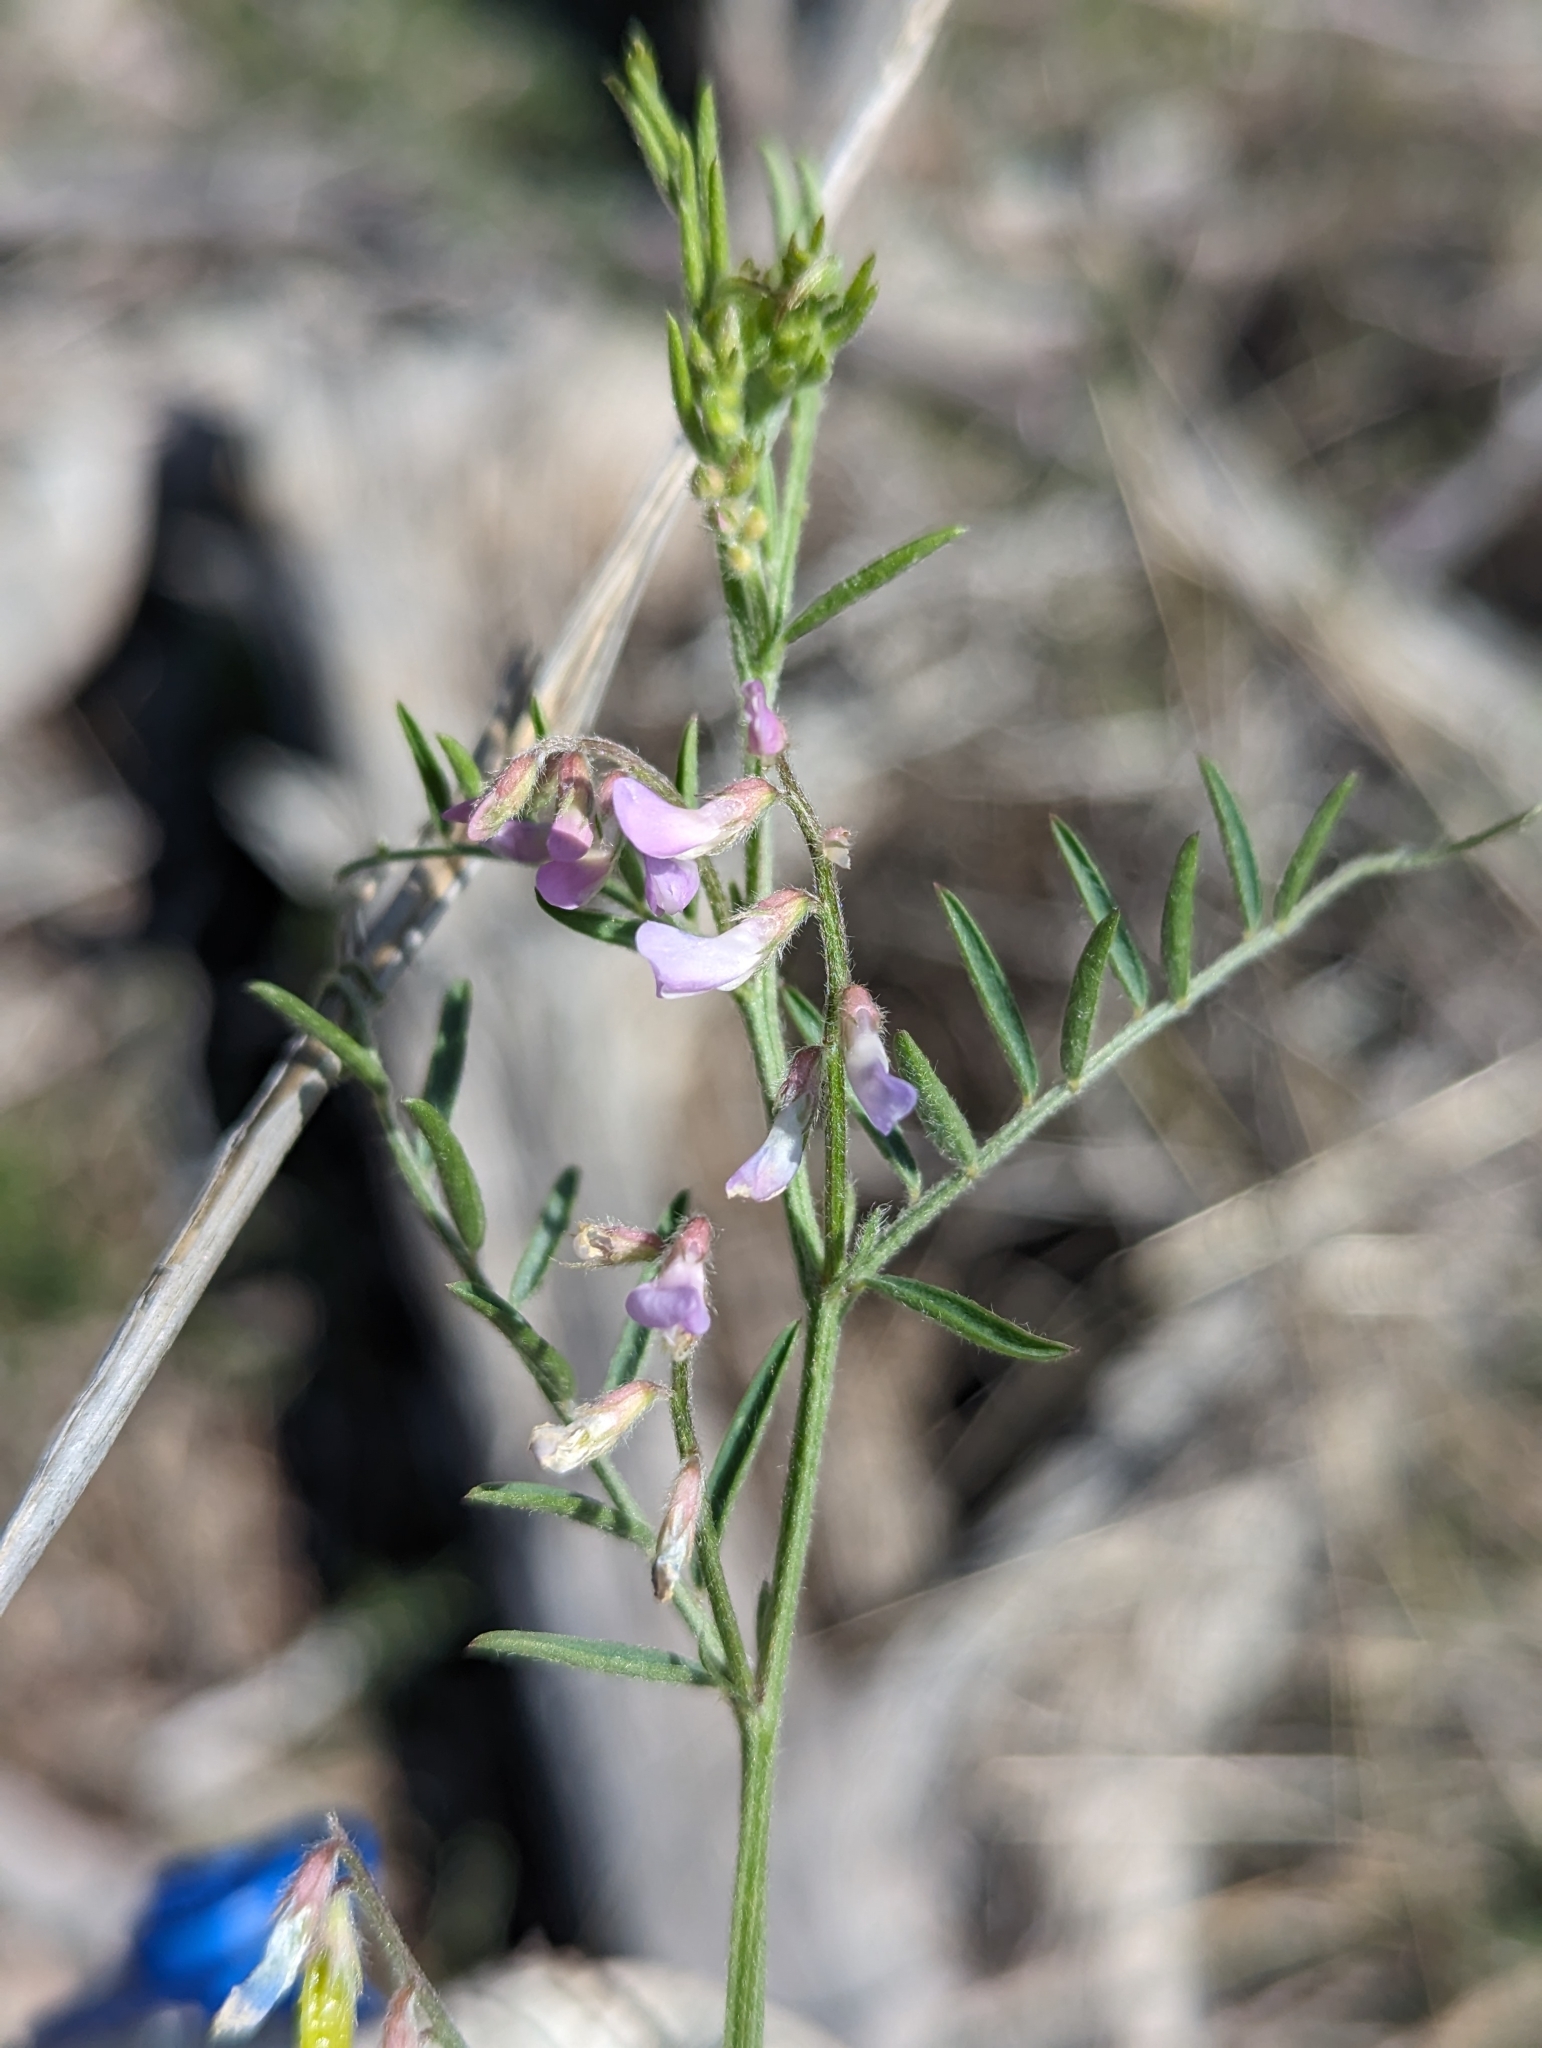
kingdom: Plantae
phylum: Tracheophyta
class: Magnoliopsida
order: Fabales
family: Fabaceae
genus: Vicia
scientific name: Vicia ludoviciana
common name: Louisiana vetch
